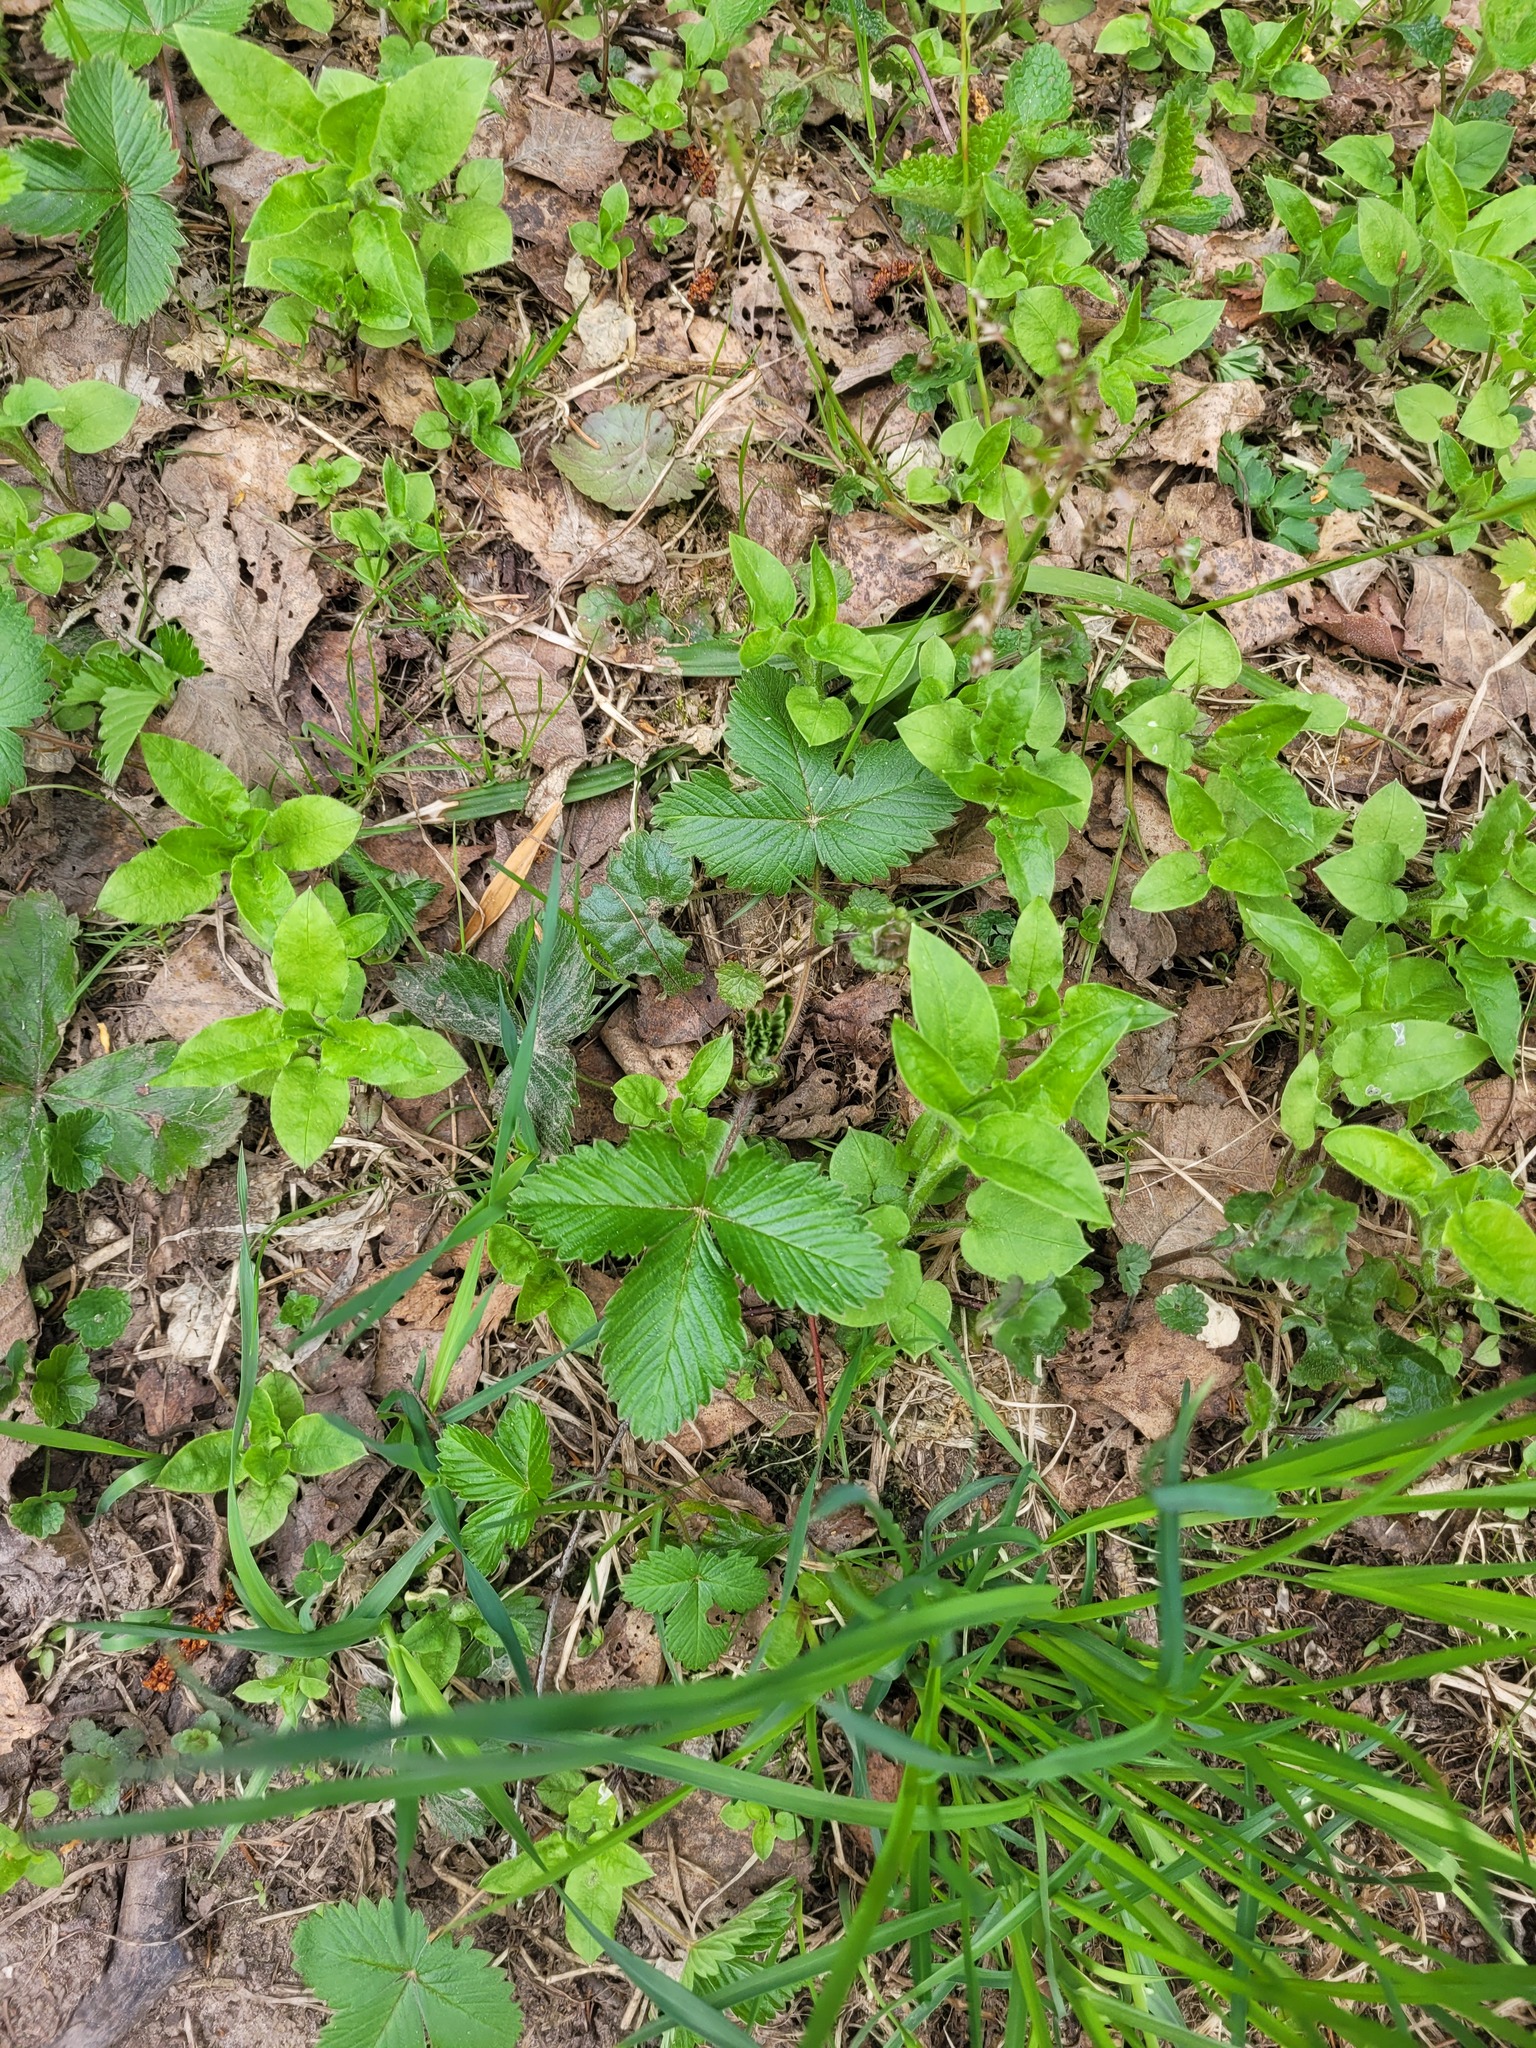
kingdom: Plantae
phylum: Tracheophyta
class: Magnoliopsida
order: Rosales
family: Rosaceae
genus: Fragaria
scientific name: Fragaria vesca
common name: Wild strawberry
